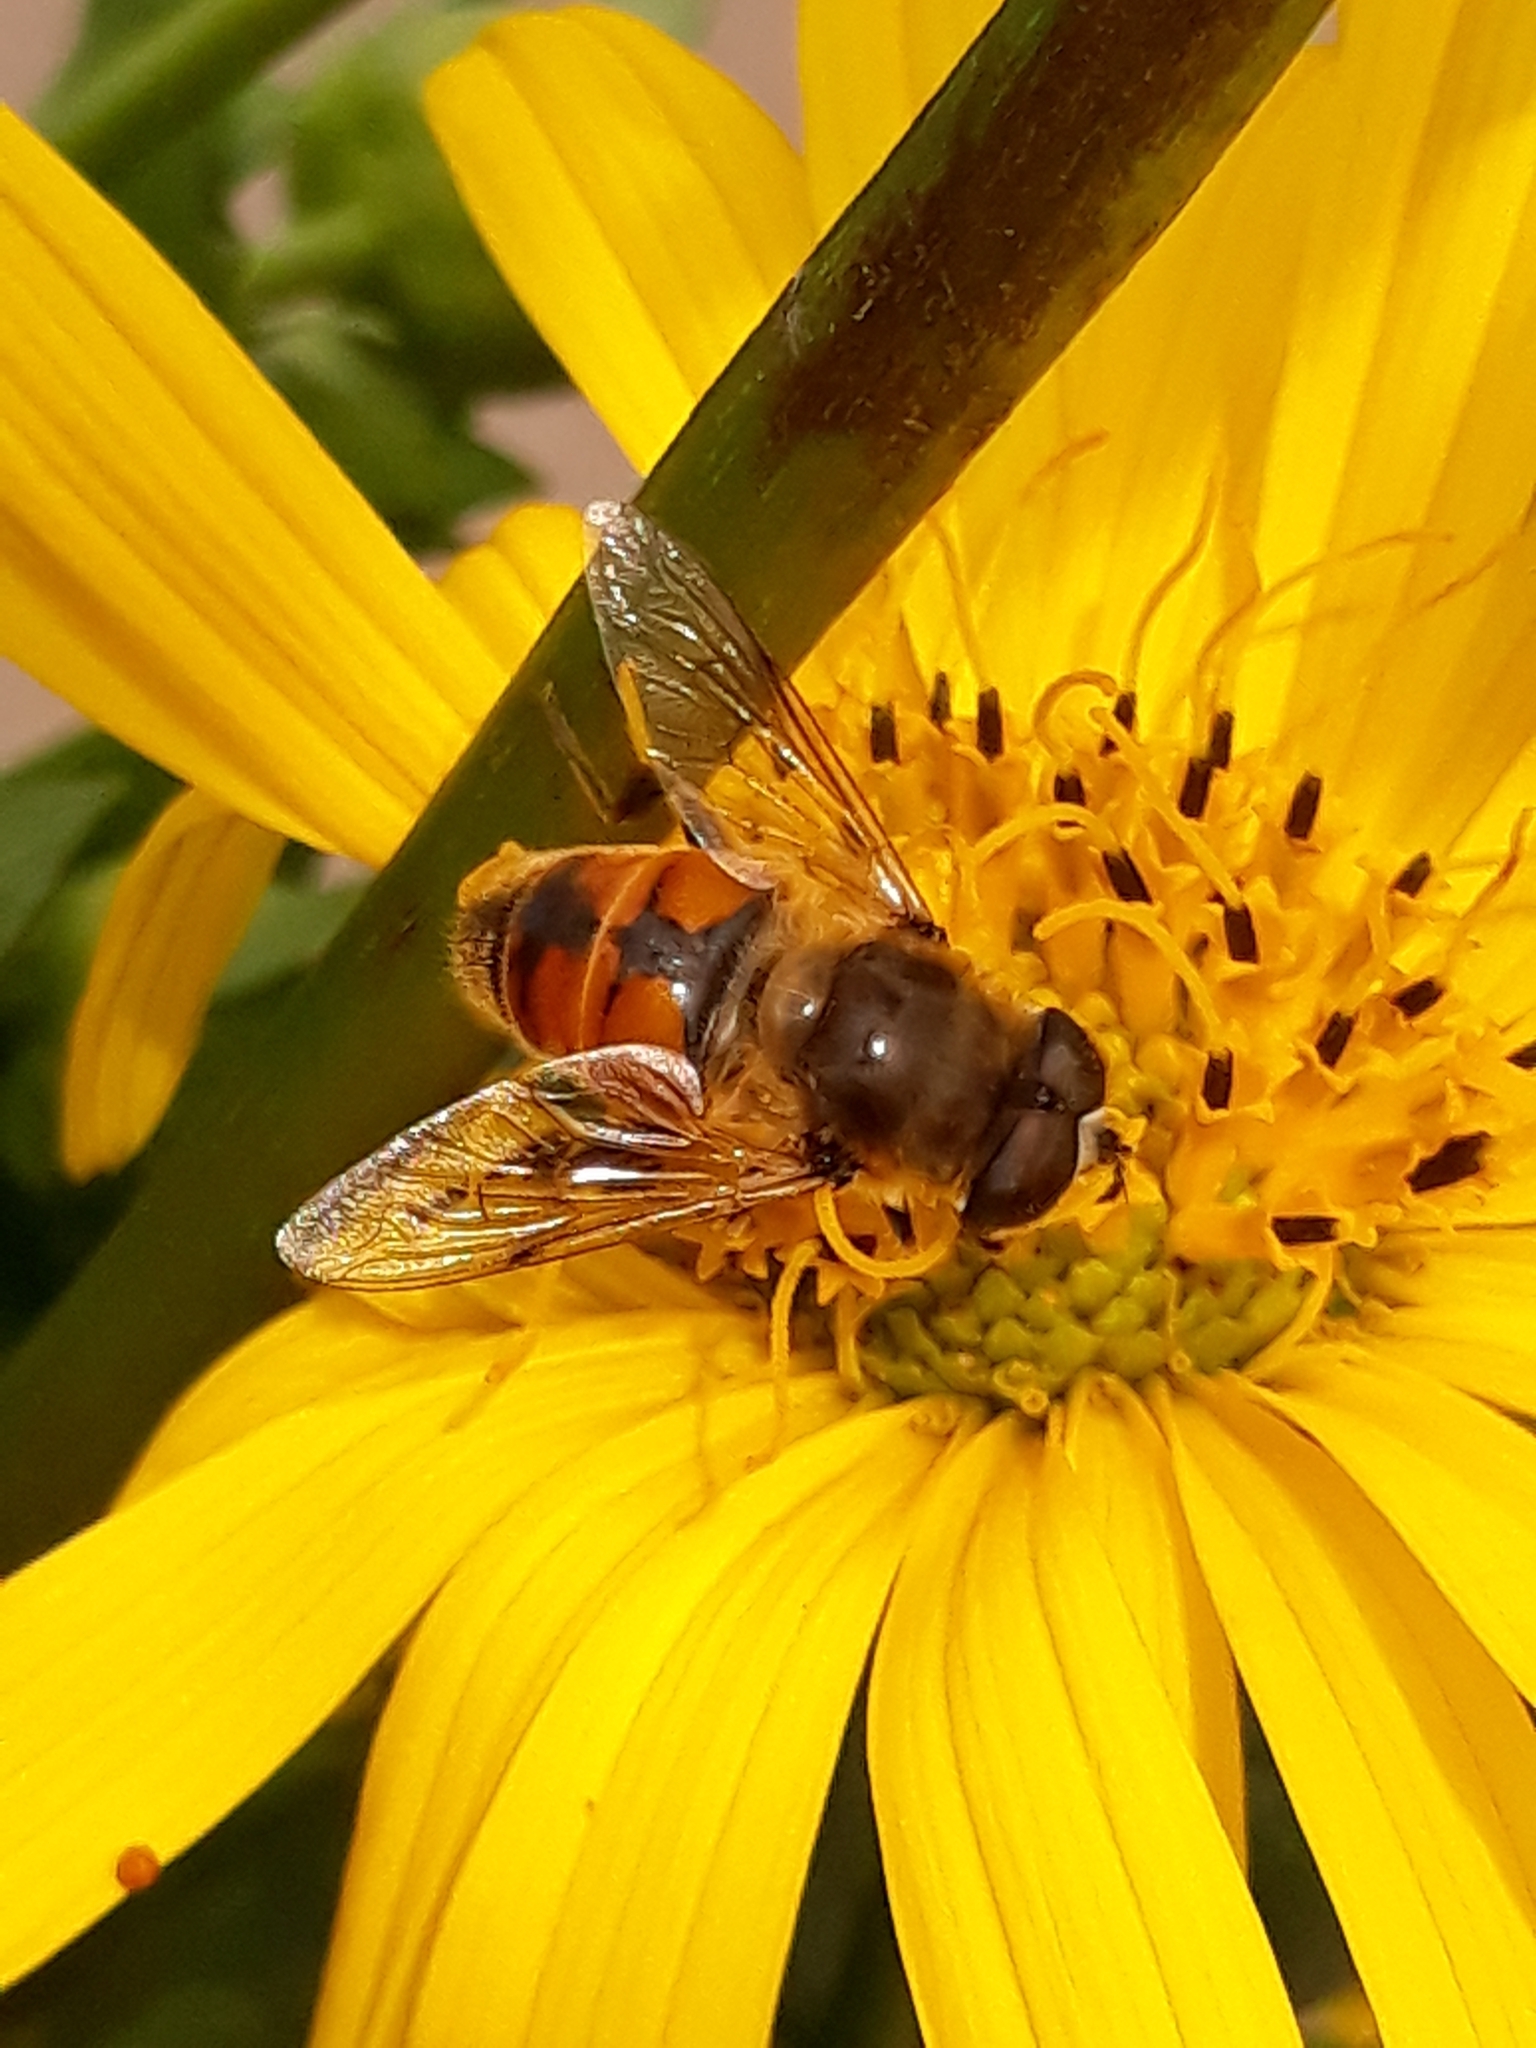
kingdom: Animalia
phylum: Arthropoda
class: Insecta
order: Diptera
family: Syrphidae
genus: Eristalis
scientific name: Eristalis tenax
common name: Drone fly
